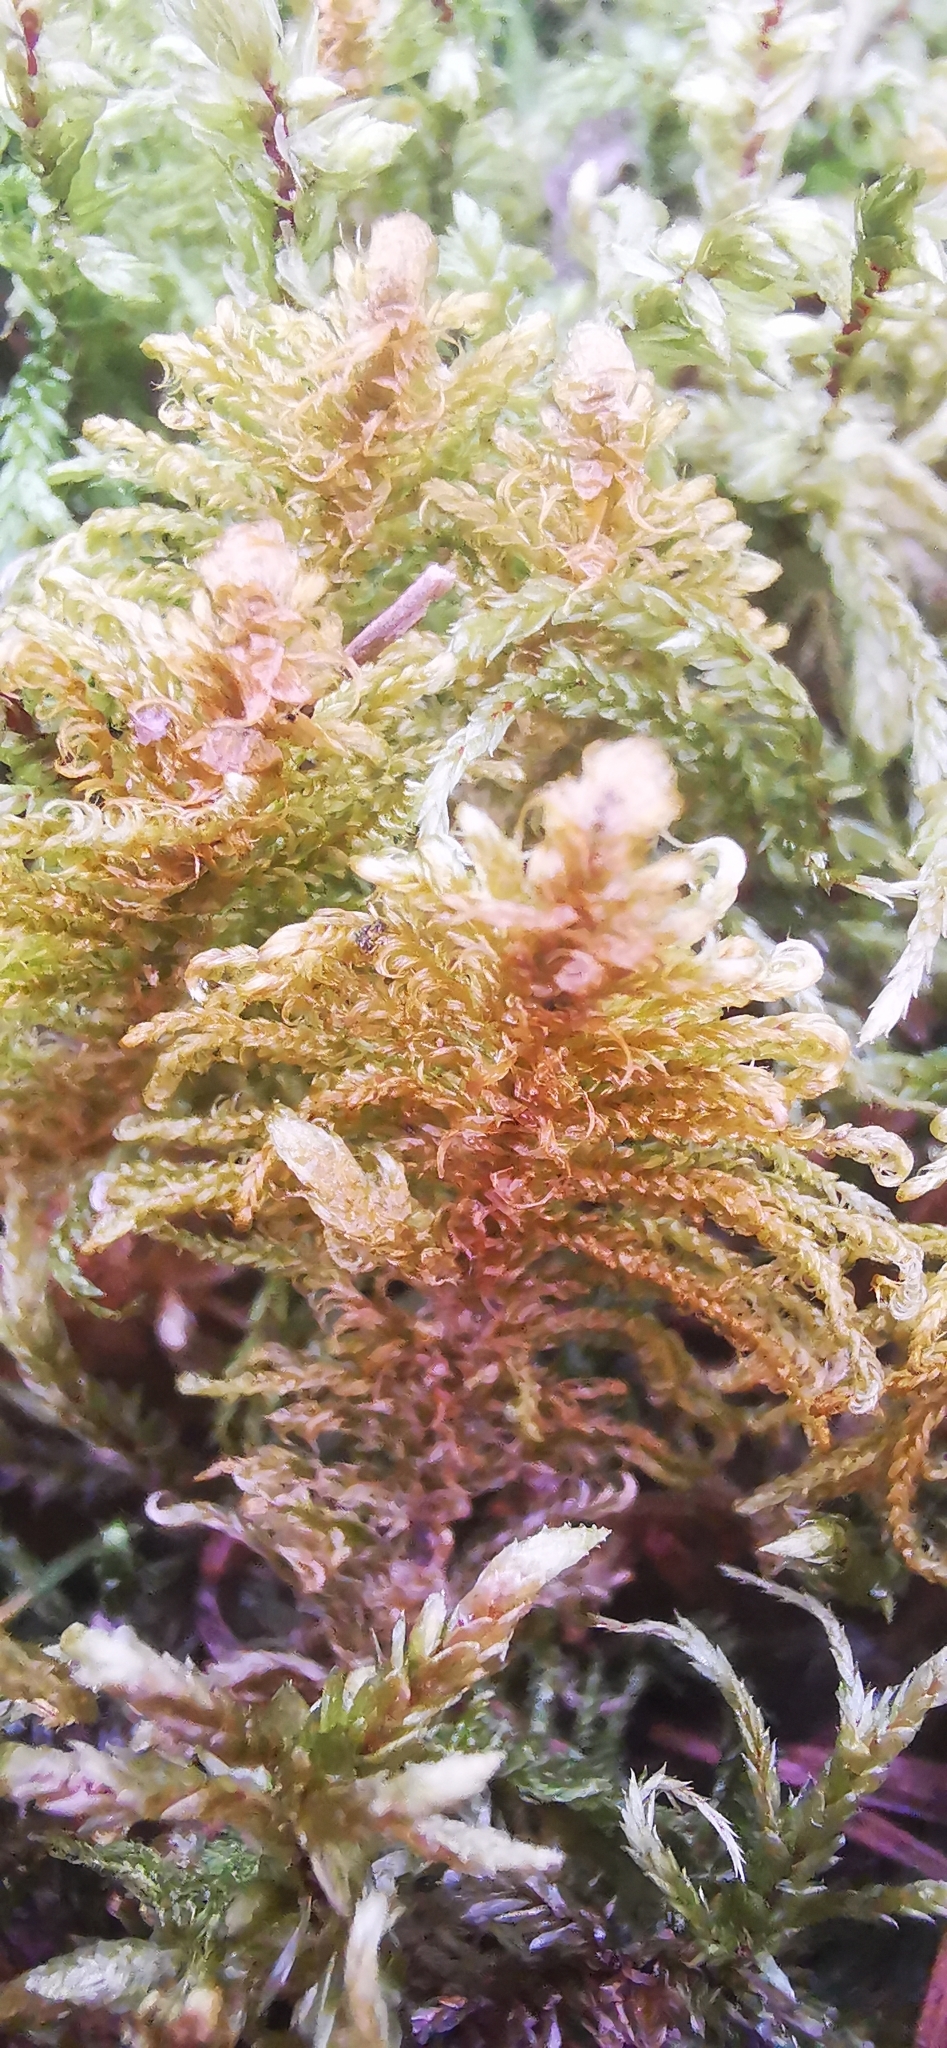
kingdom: Plantae
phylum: Bryophyta
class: Bryopsida
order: Hypnales
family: Pylaisiaceae
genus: Ptilium
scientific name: Ptilium crista-castrensis
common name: Knight's plume moss
